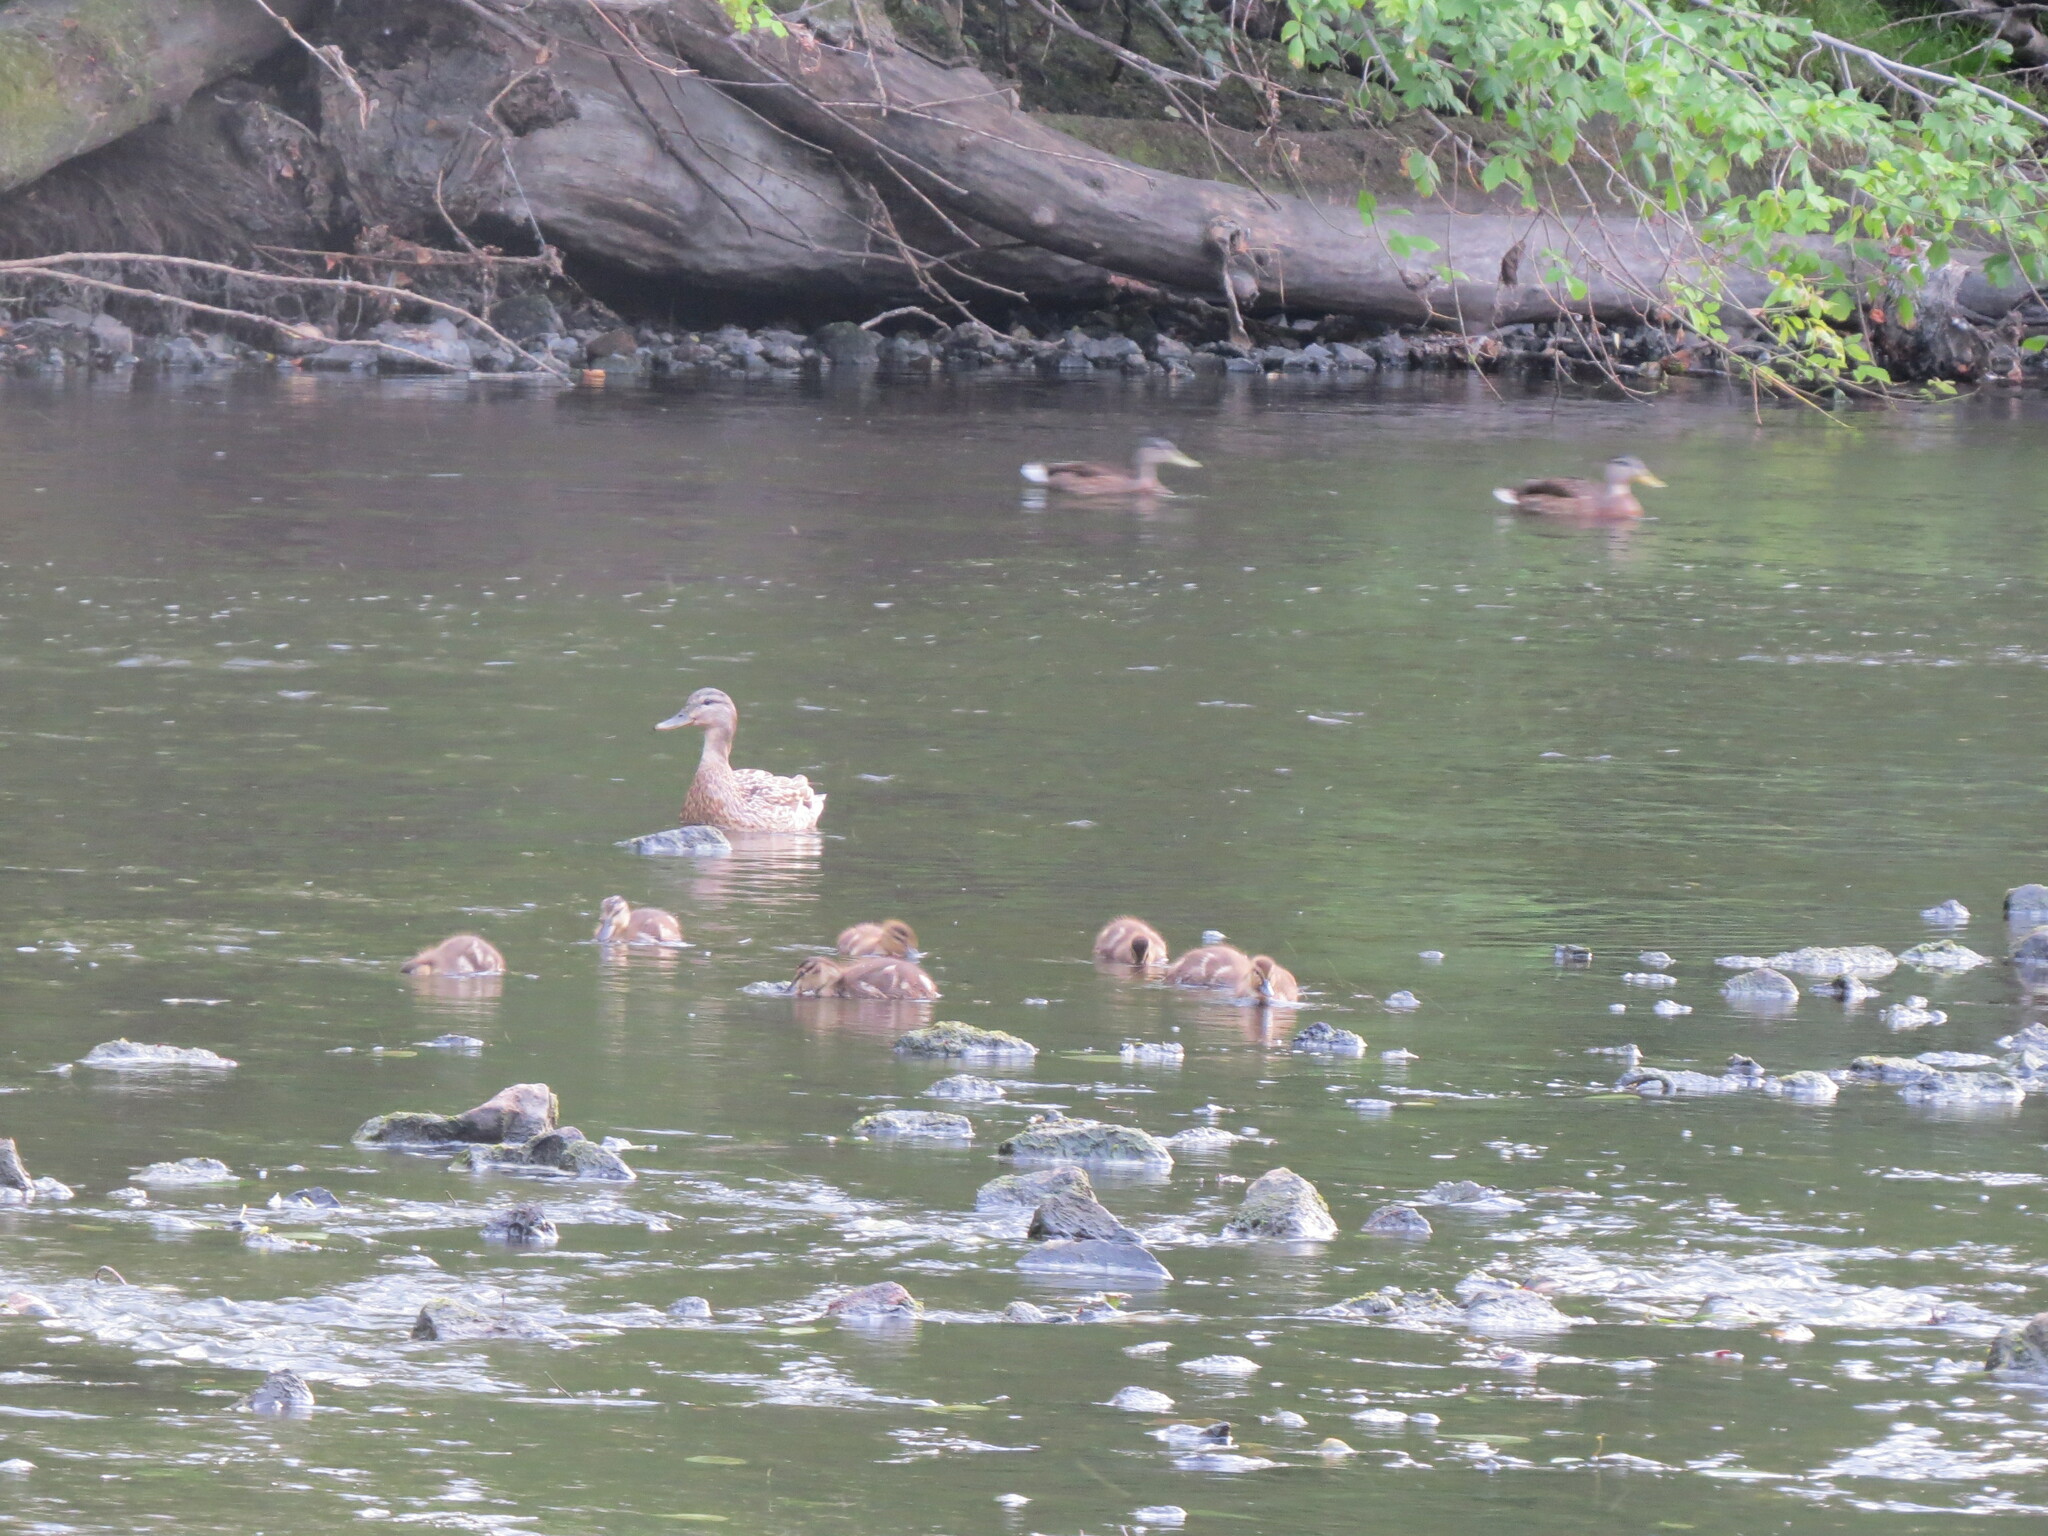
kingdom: Animalia
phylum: Chordata
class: Aves
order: Anseriformes
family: Anatidae
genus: Anas
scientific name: Anas platyrhynchos
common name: Mallard
